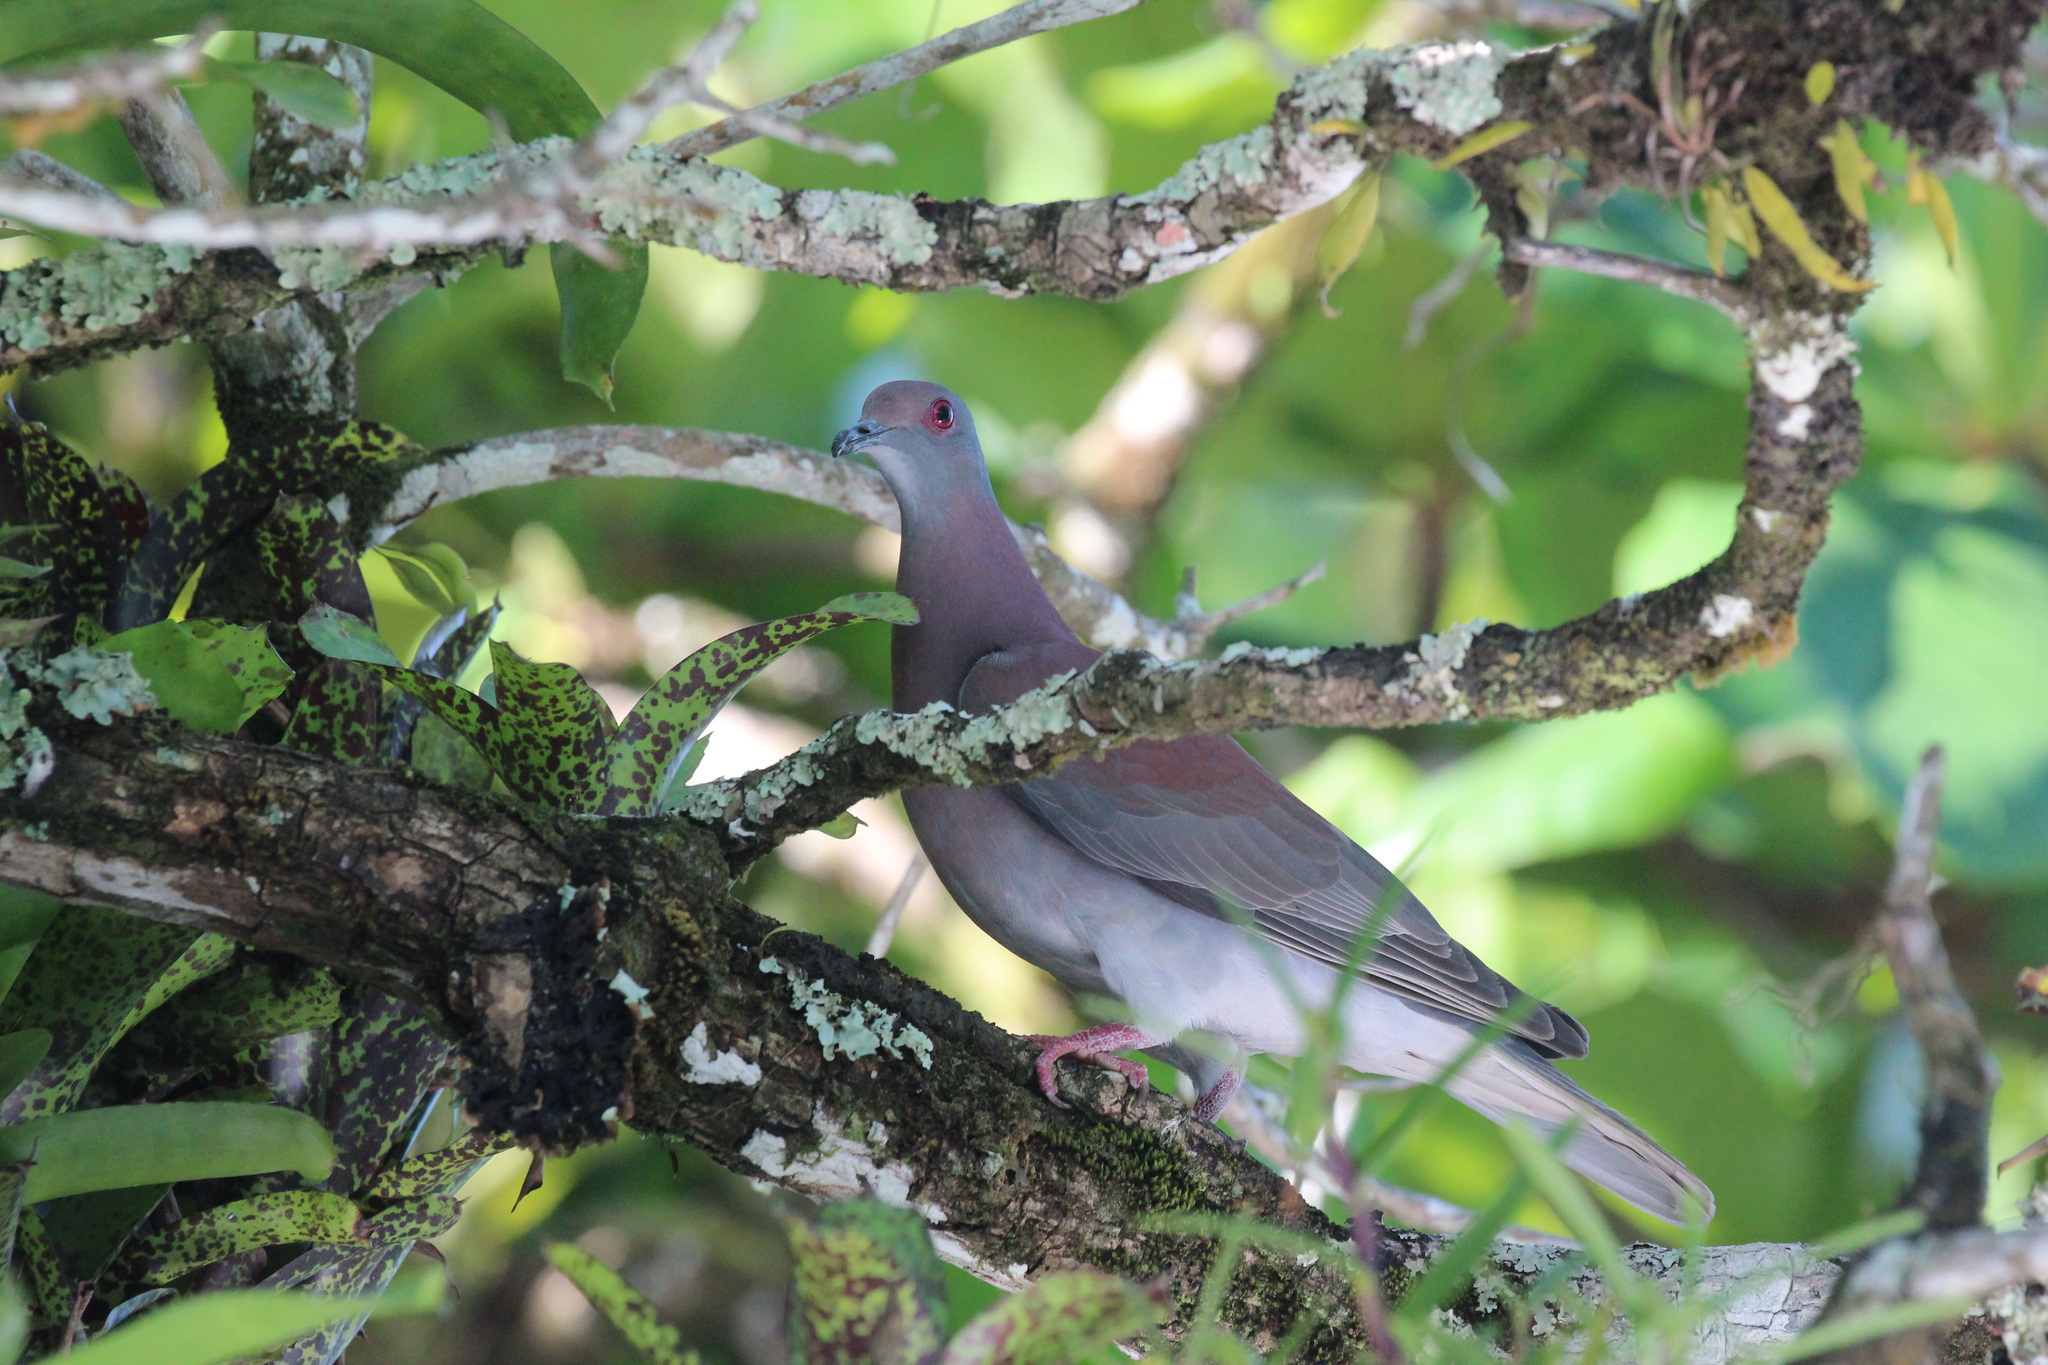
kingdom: Animalia
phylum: Chordata
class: Aves
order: Columbiformes
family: Columbidae
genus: Patagioenas
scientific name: Patagioenas cayennensis
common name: Pale-vented pigeon
